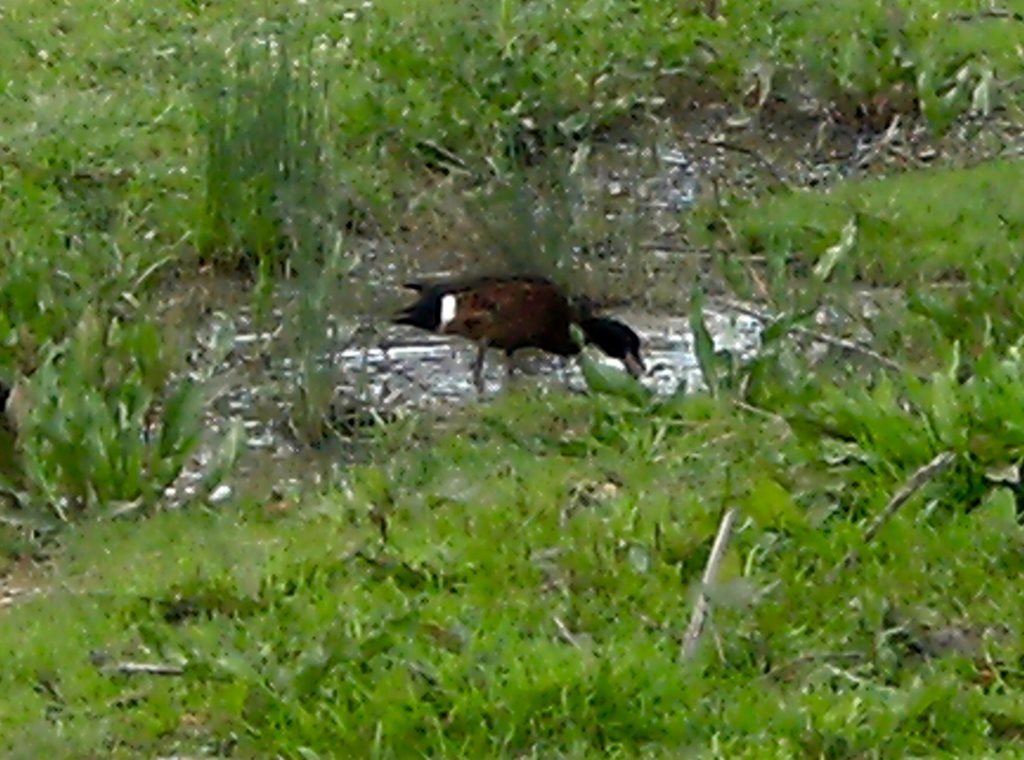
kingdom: Animalia
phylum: Chordata
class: Aves
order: Anseriformes
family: Anatidae
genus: Anas
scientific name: Anas castanea
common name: Chestnut teal
